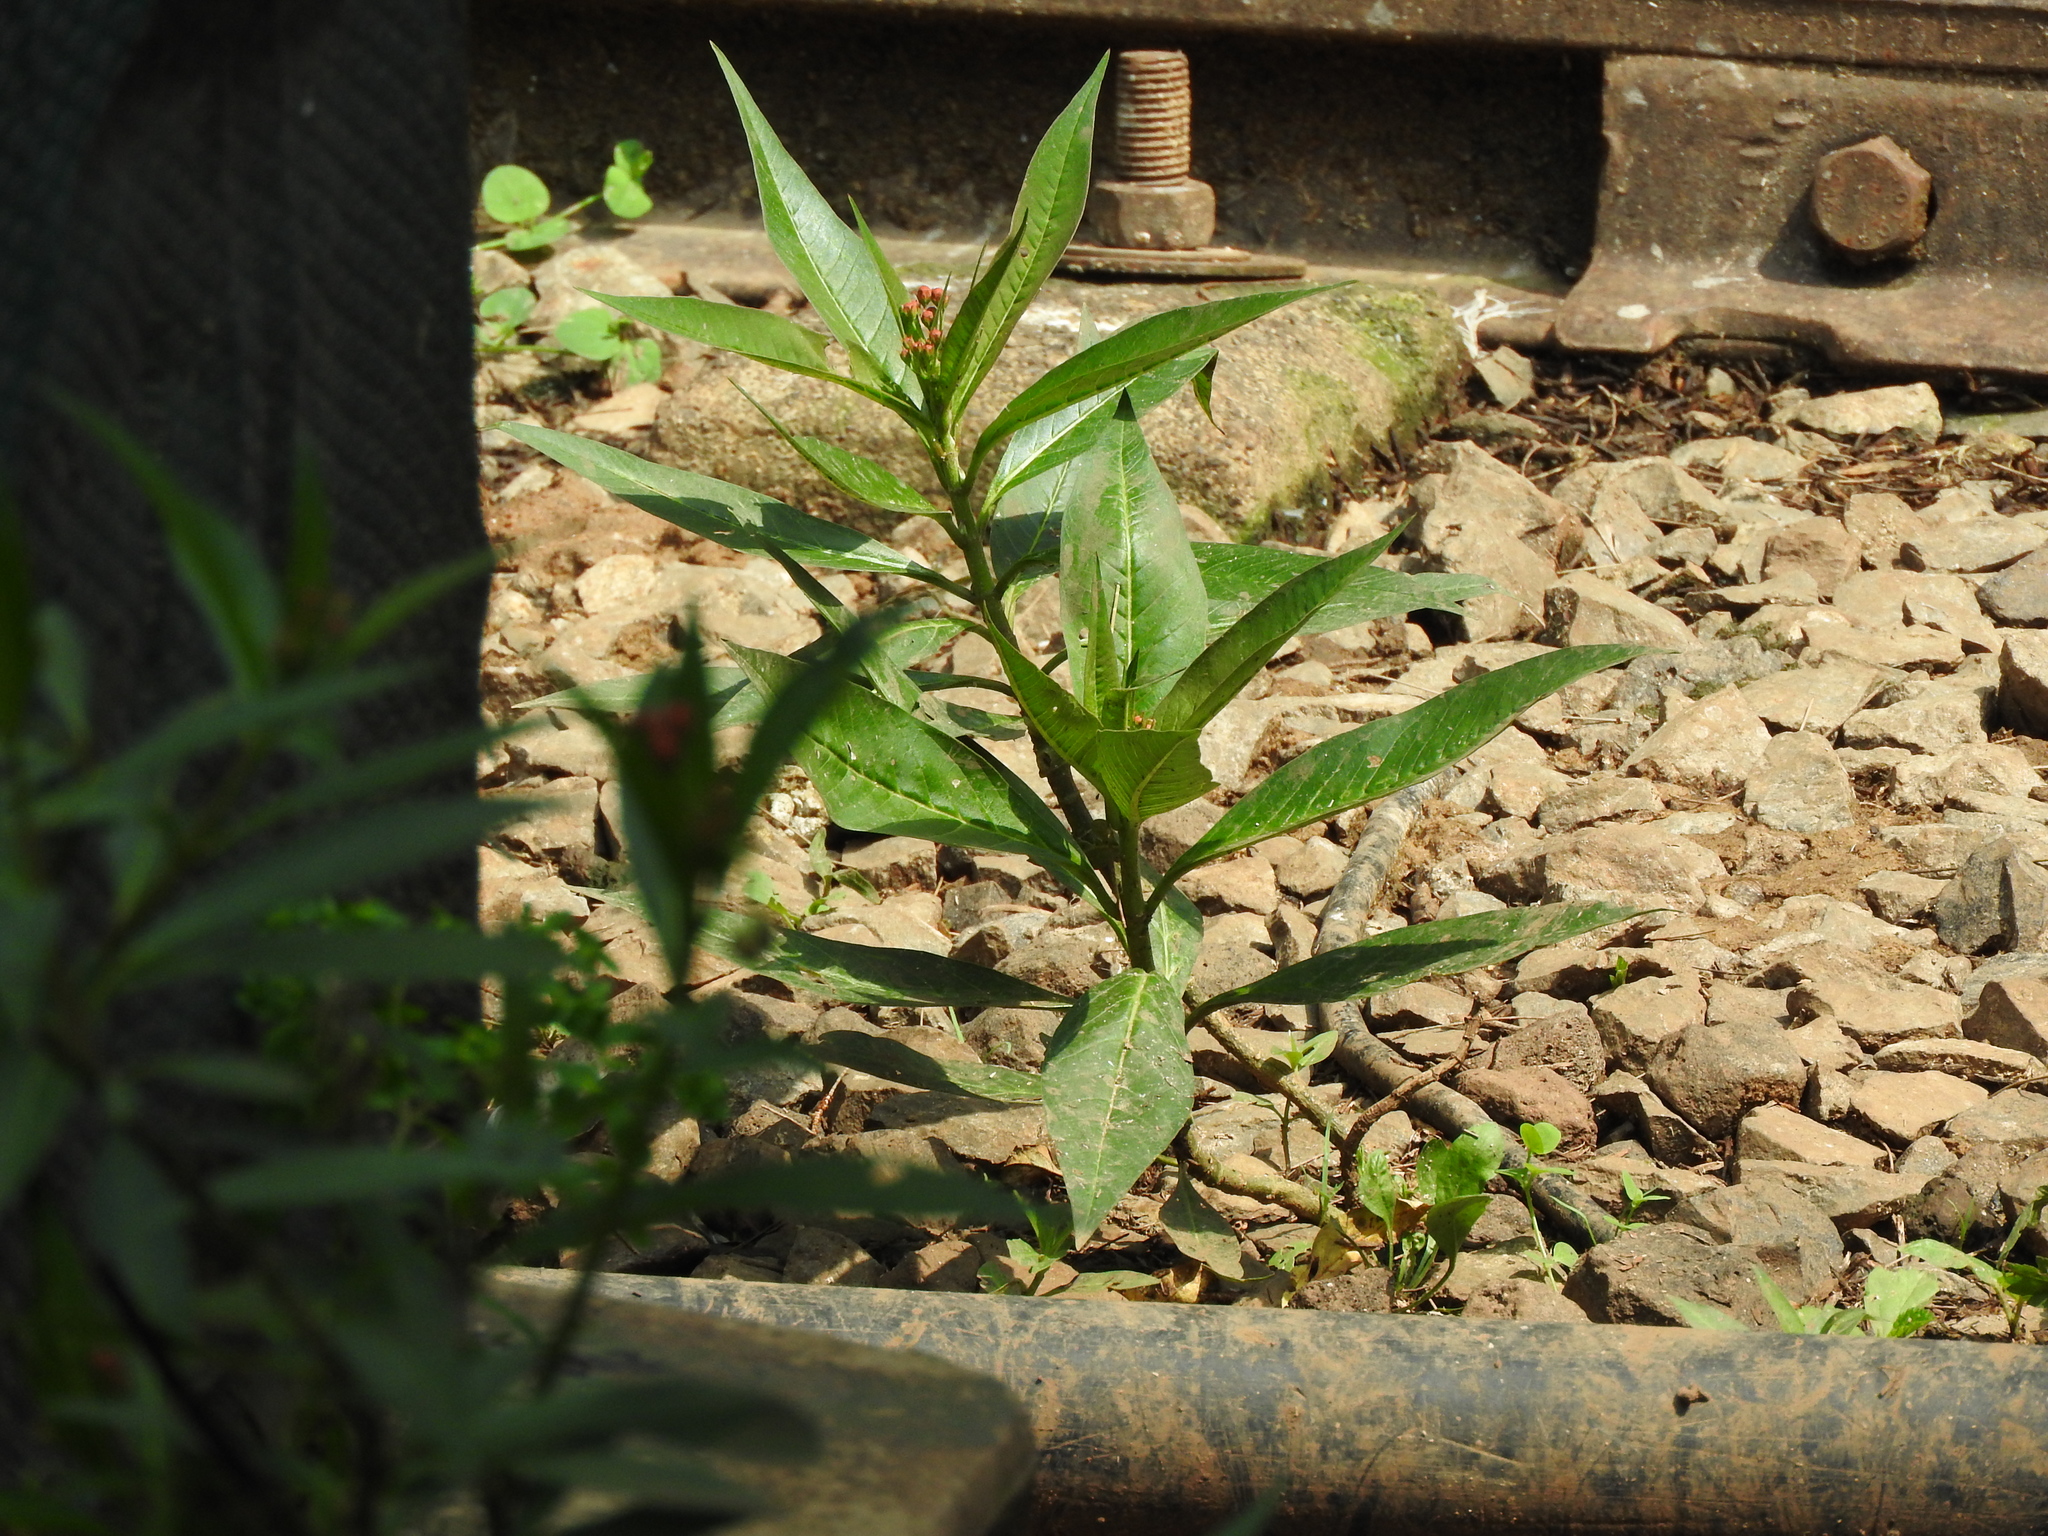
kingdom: Plantae
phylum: Tracheophyta
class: Magnoliopsida
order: Gentianales
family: Apocynaceae
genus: Asclepias
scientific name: Asclepias curassavica
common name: Bloodflower
